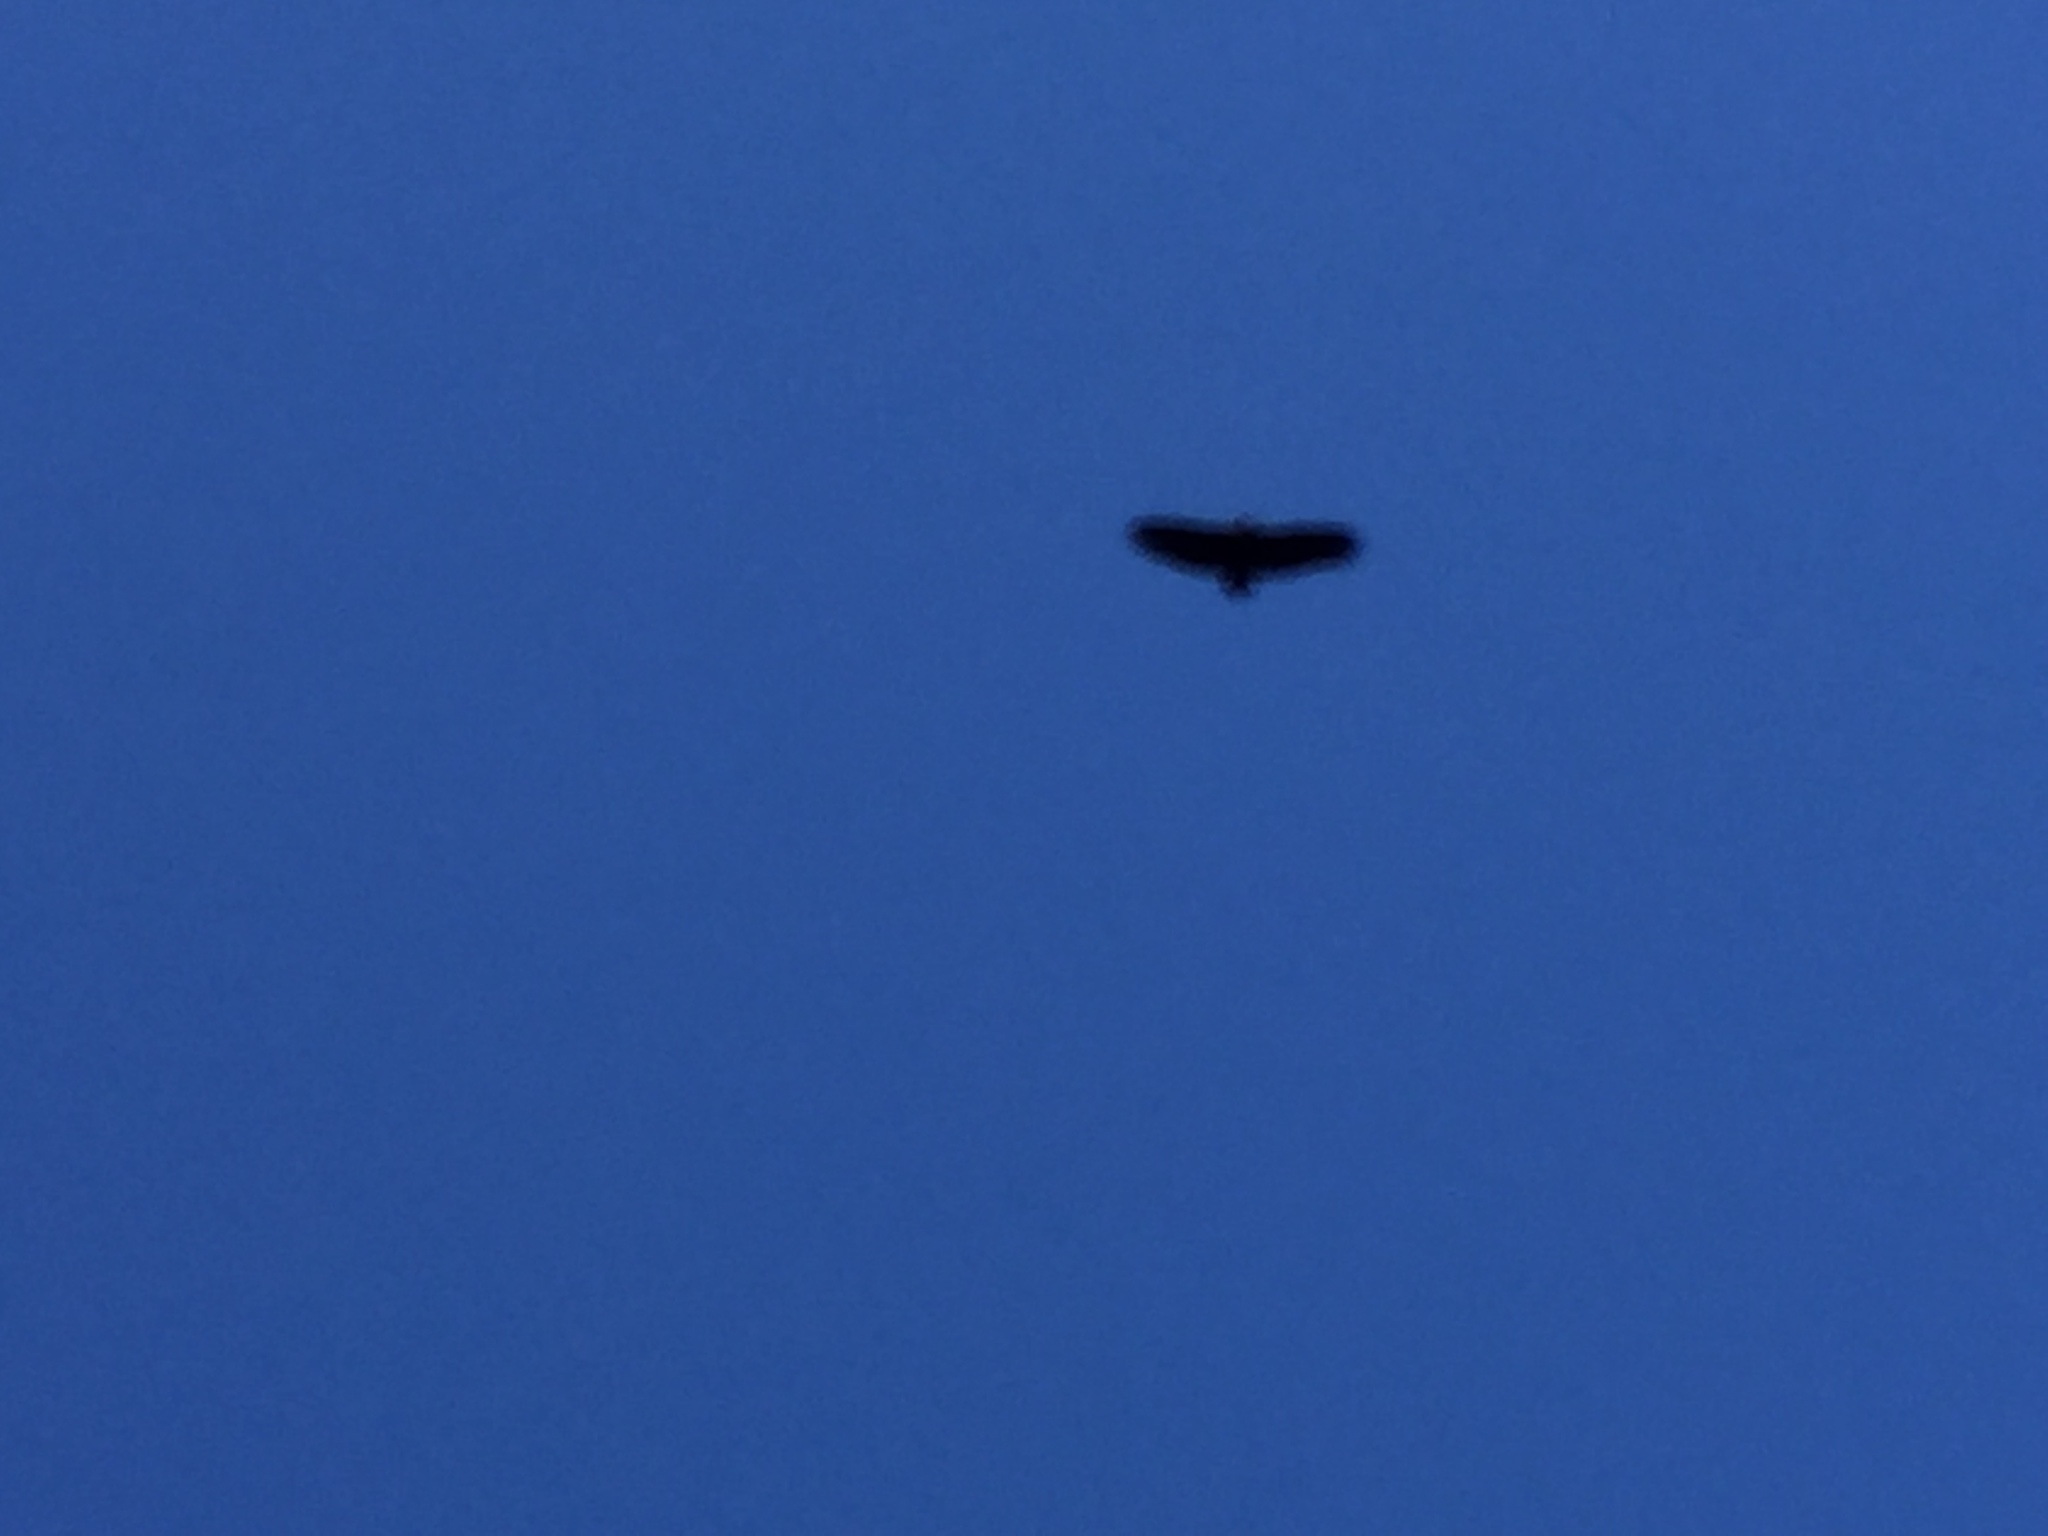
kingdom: Animalia
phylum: Chordata
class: Aves
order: Accipitriformes
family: Accipitridae
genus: Aegypius
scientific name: Aegypius monachus
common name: Cinereous vulture
